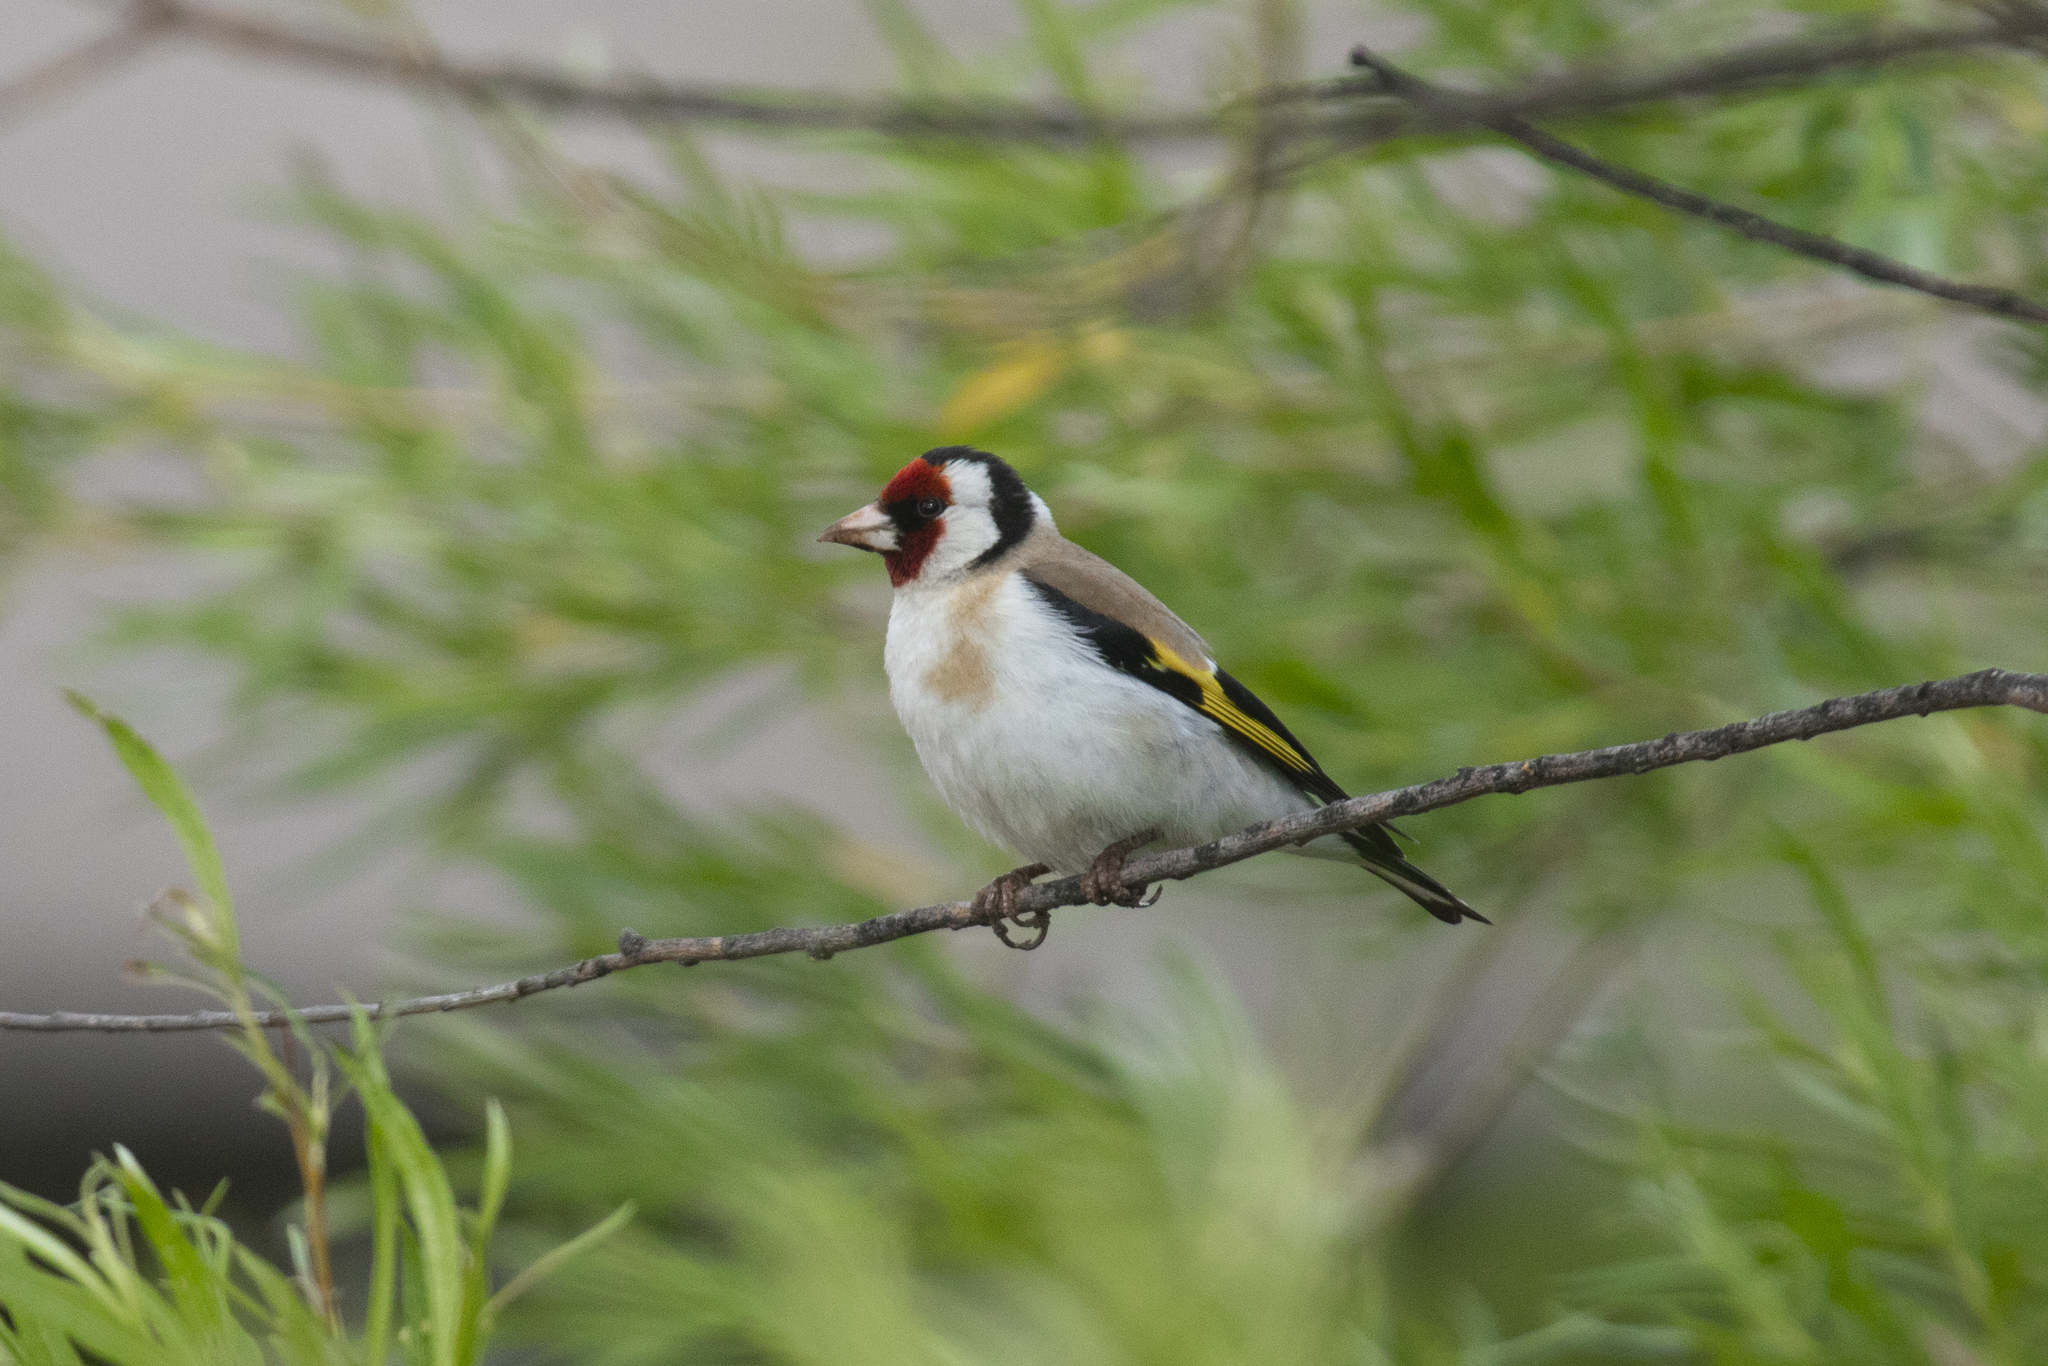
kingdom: Animalia
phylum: Chordata
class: Aves
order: Passeriformes
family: Fringillidae
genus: Carduelis
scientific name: Carduelis carduelis
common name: European goldfinch
